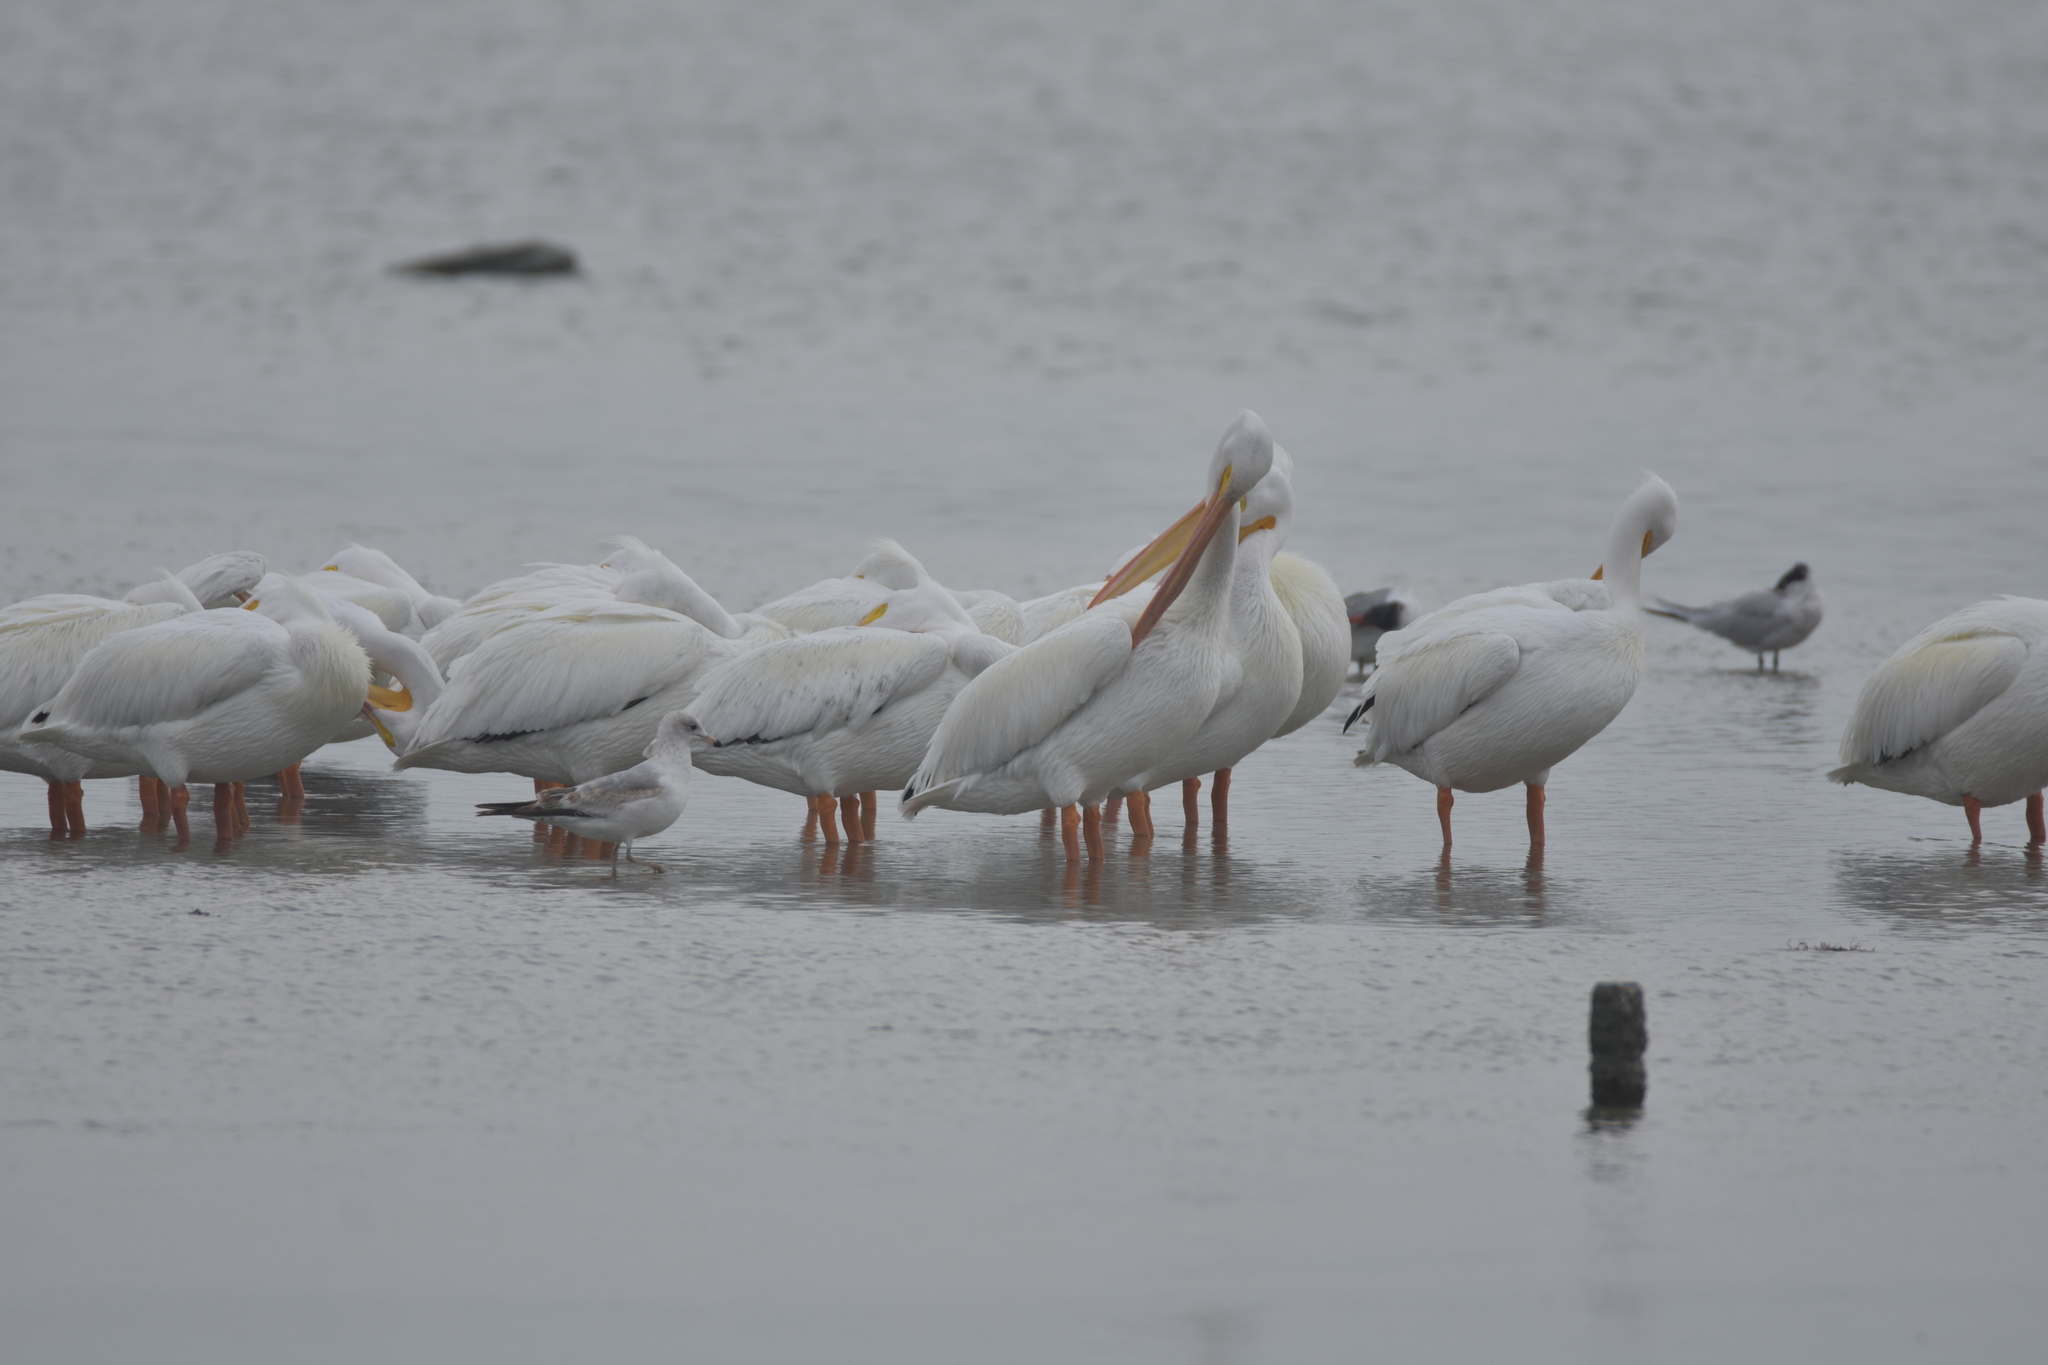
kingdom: Animalia
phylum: Chordata
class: Aves
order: Pelecaniformes
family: Pelecanidae
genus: Pelecanus
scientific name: Pelecanus erythrorhynchos
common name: American white pelican
